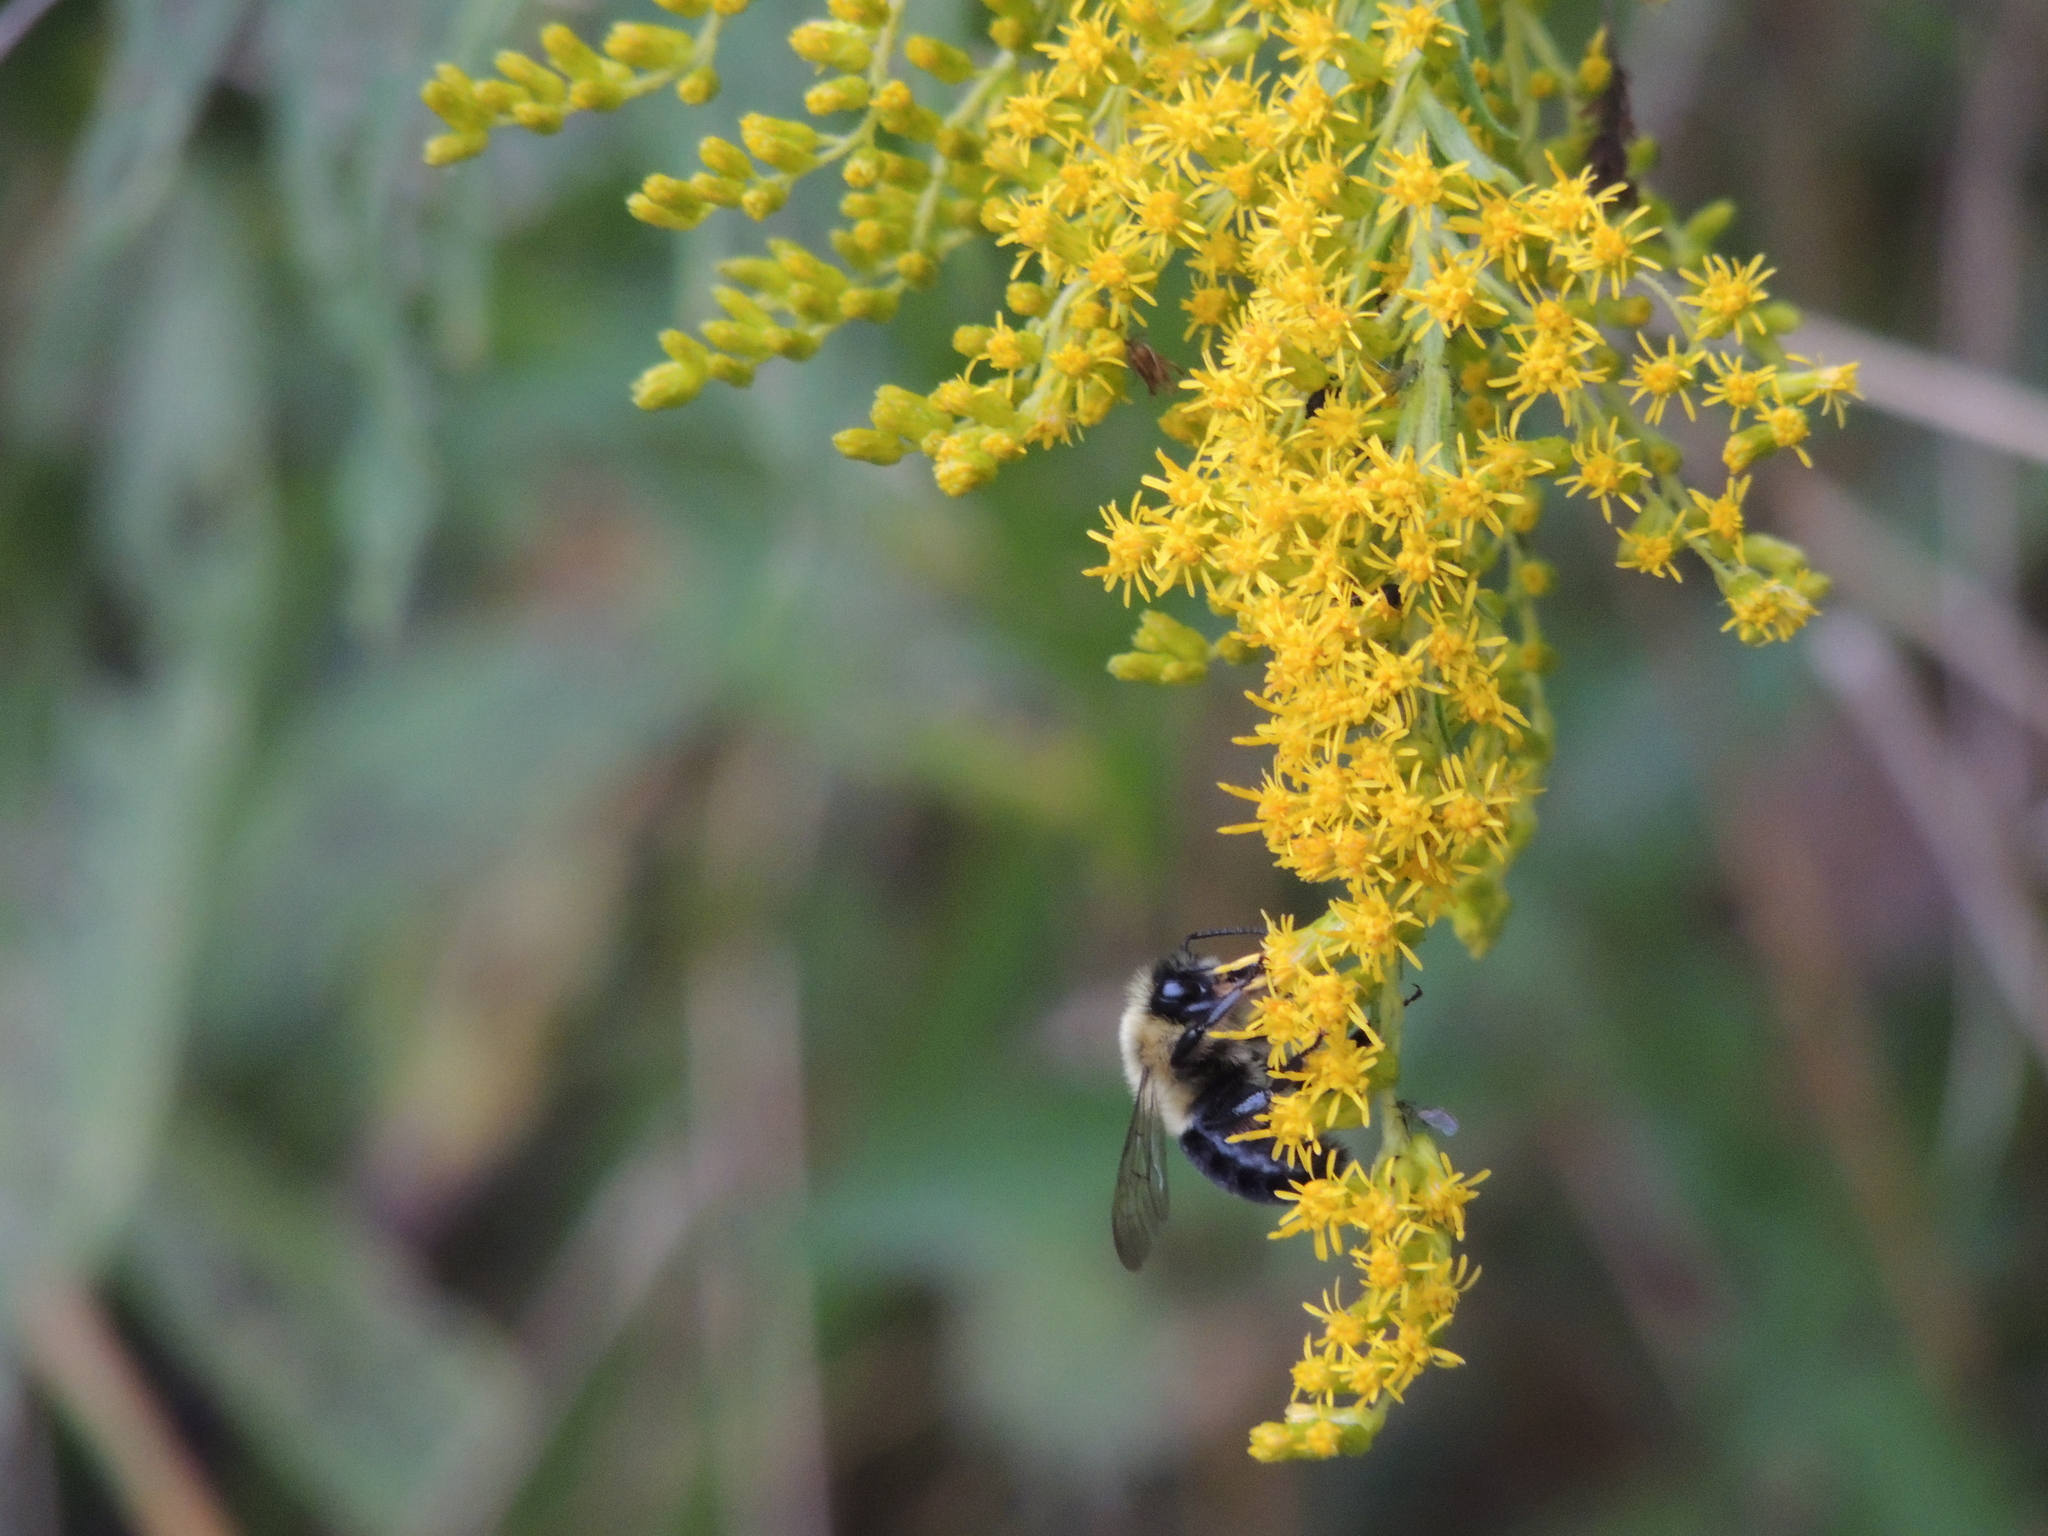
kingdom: Animalia
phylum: Arthropoda
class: Insecta
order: Hymenoptera
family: Apidae
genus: Bombus
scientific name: Bombus impatiens
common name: Common eastern bumble bee
